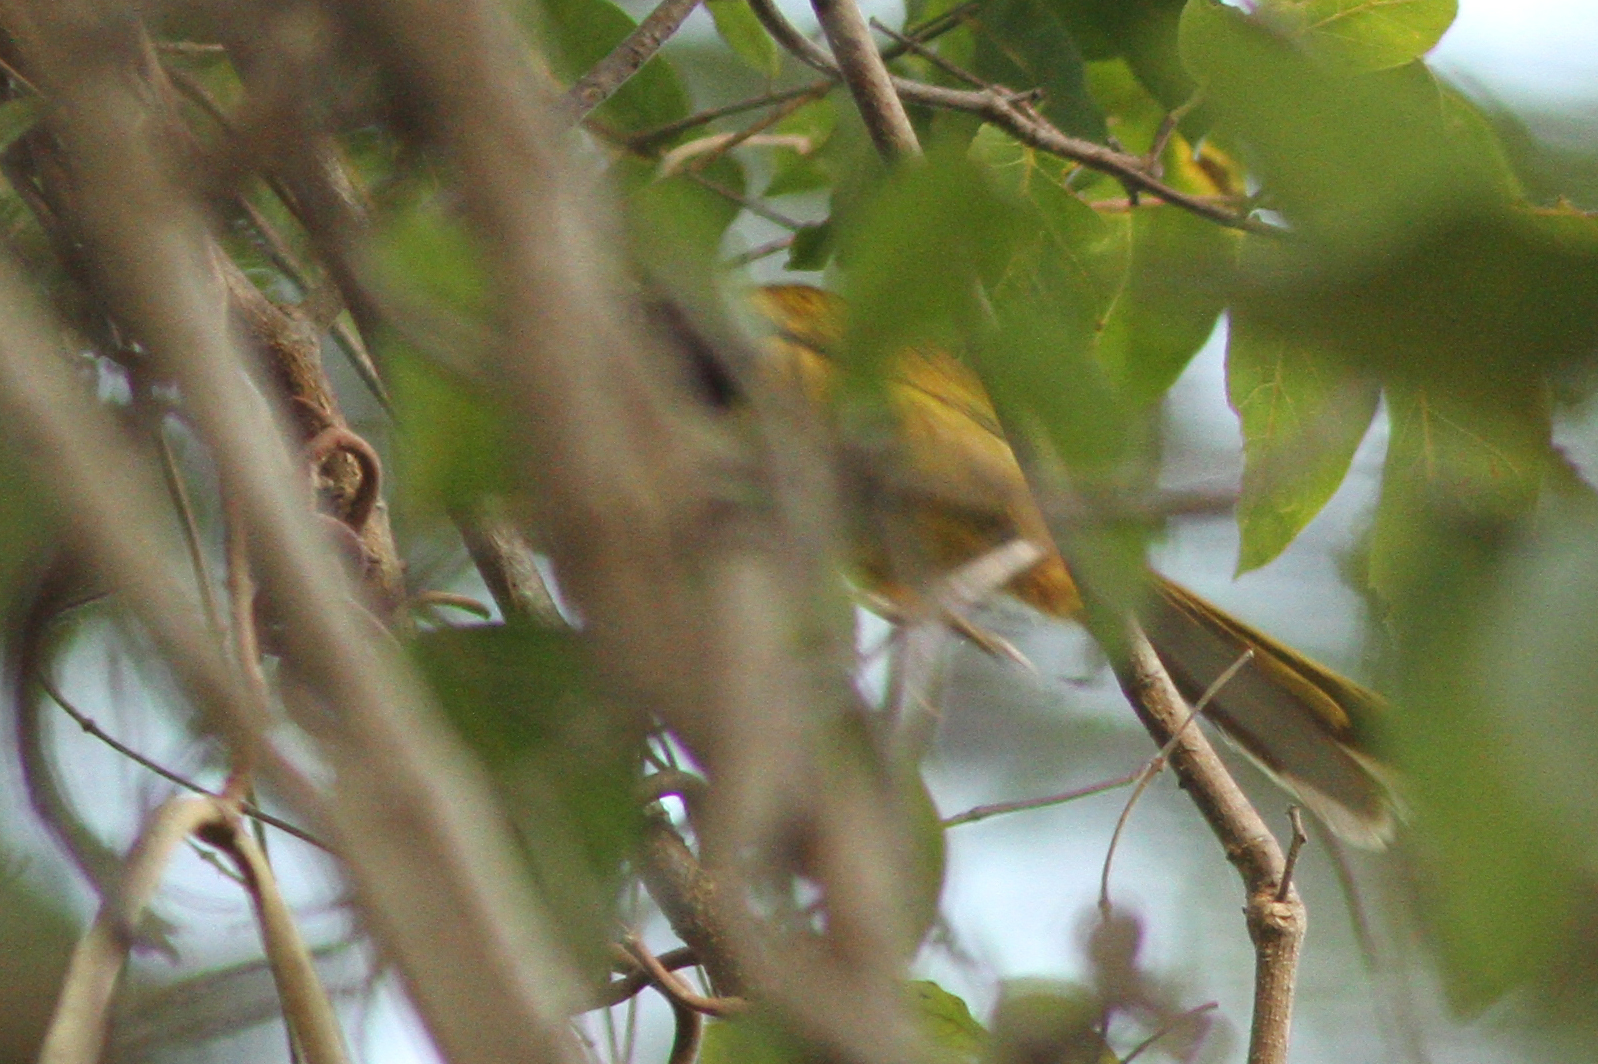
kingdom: Animalia
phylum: Chordata
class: Aves
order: Passeriformes
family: Cisticolidae
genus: Hypergerus
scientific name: Hypergerus atriceps
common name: Oriole warbler
